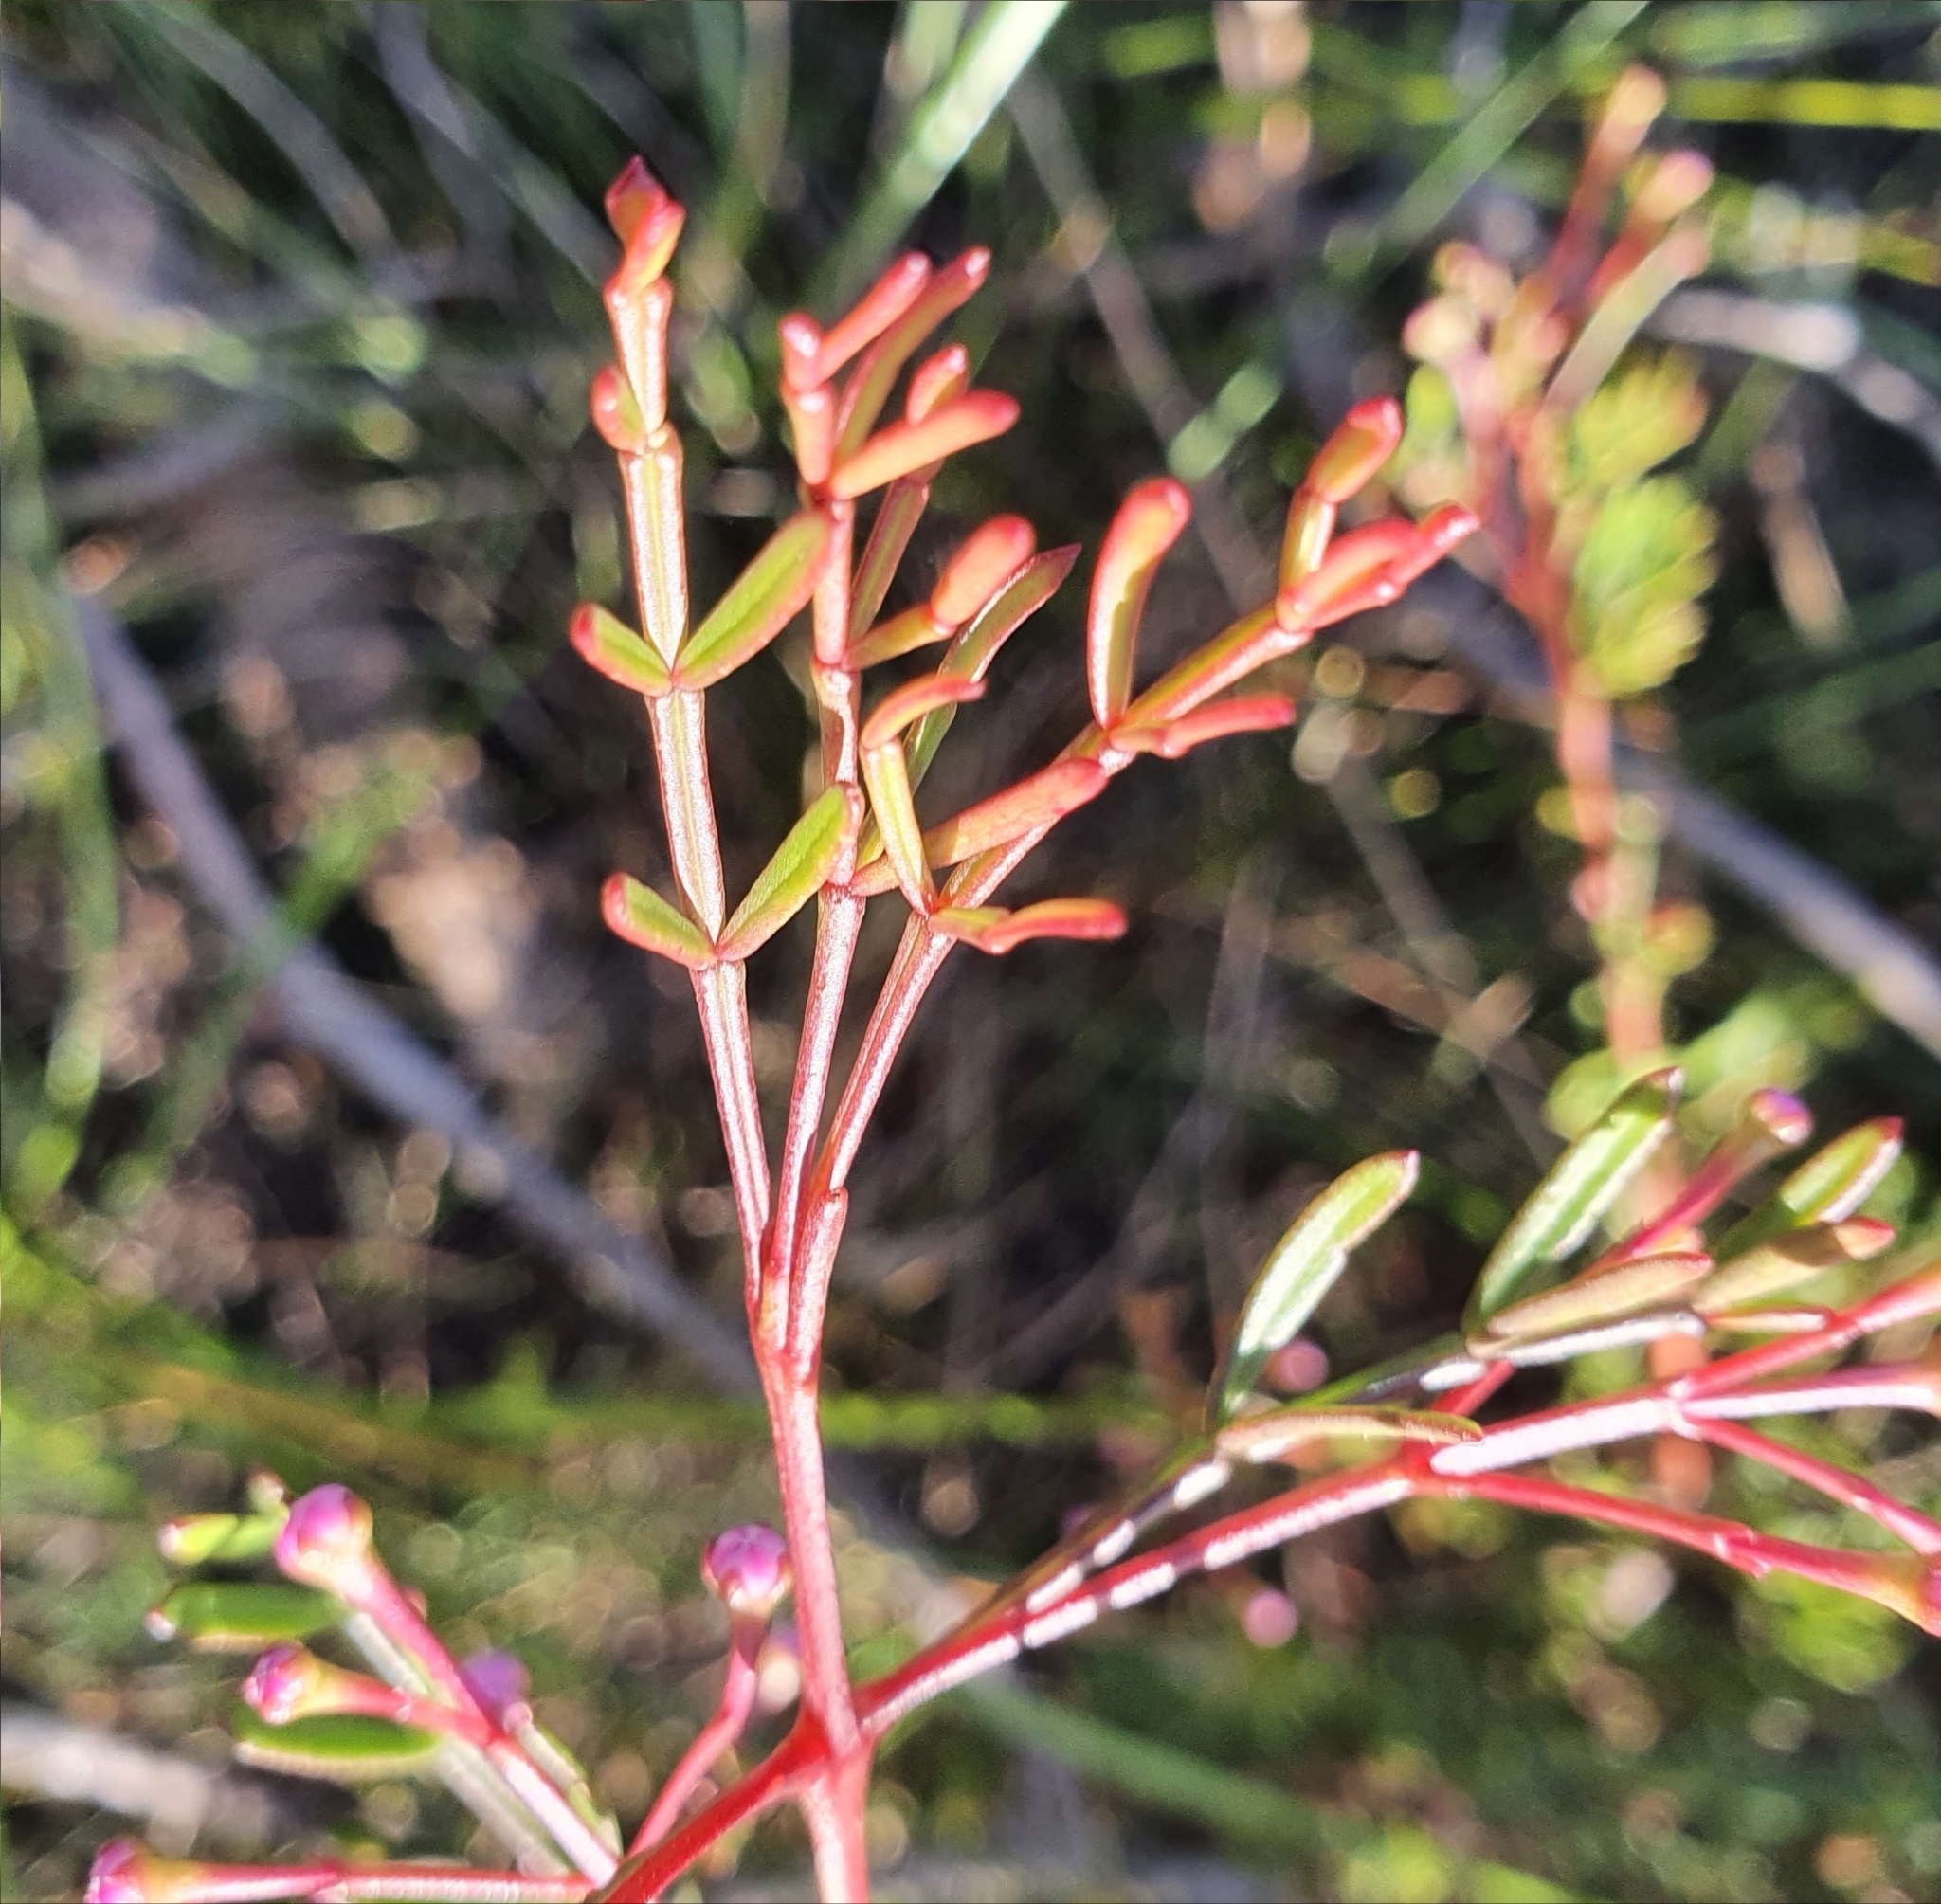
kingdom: Plantae
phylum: Tracheophyta
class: Magnoliopsida
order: Sapindales
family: Rutaceae
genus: Boronia
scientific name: Boronia pinnata
